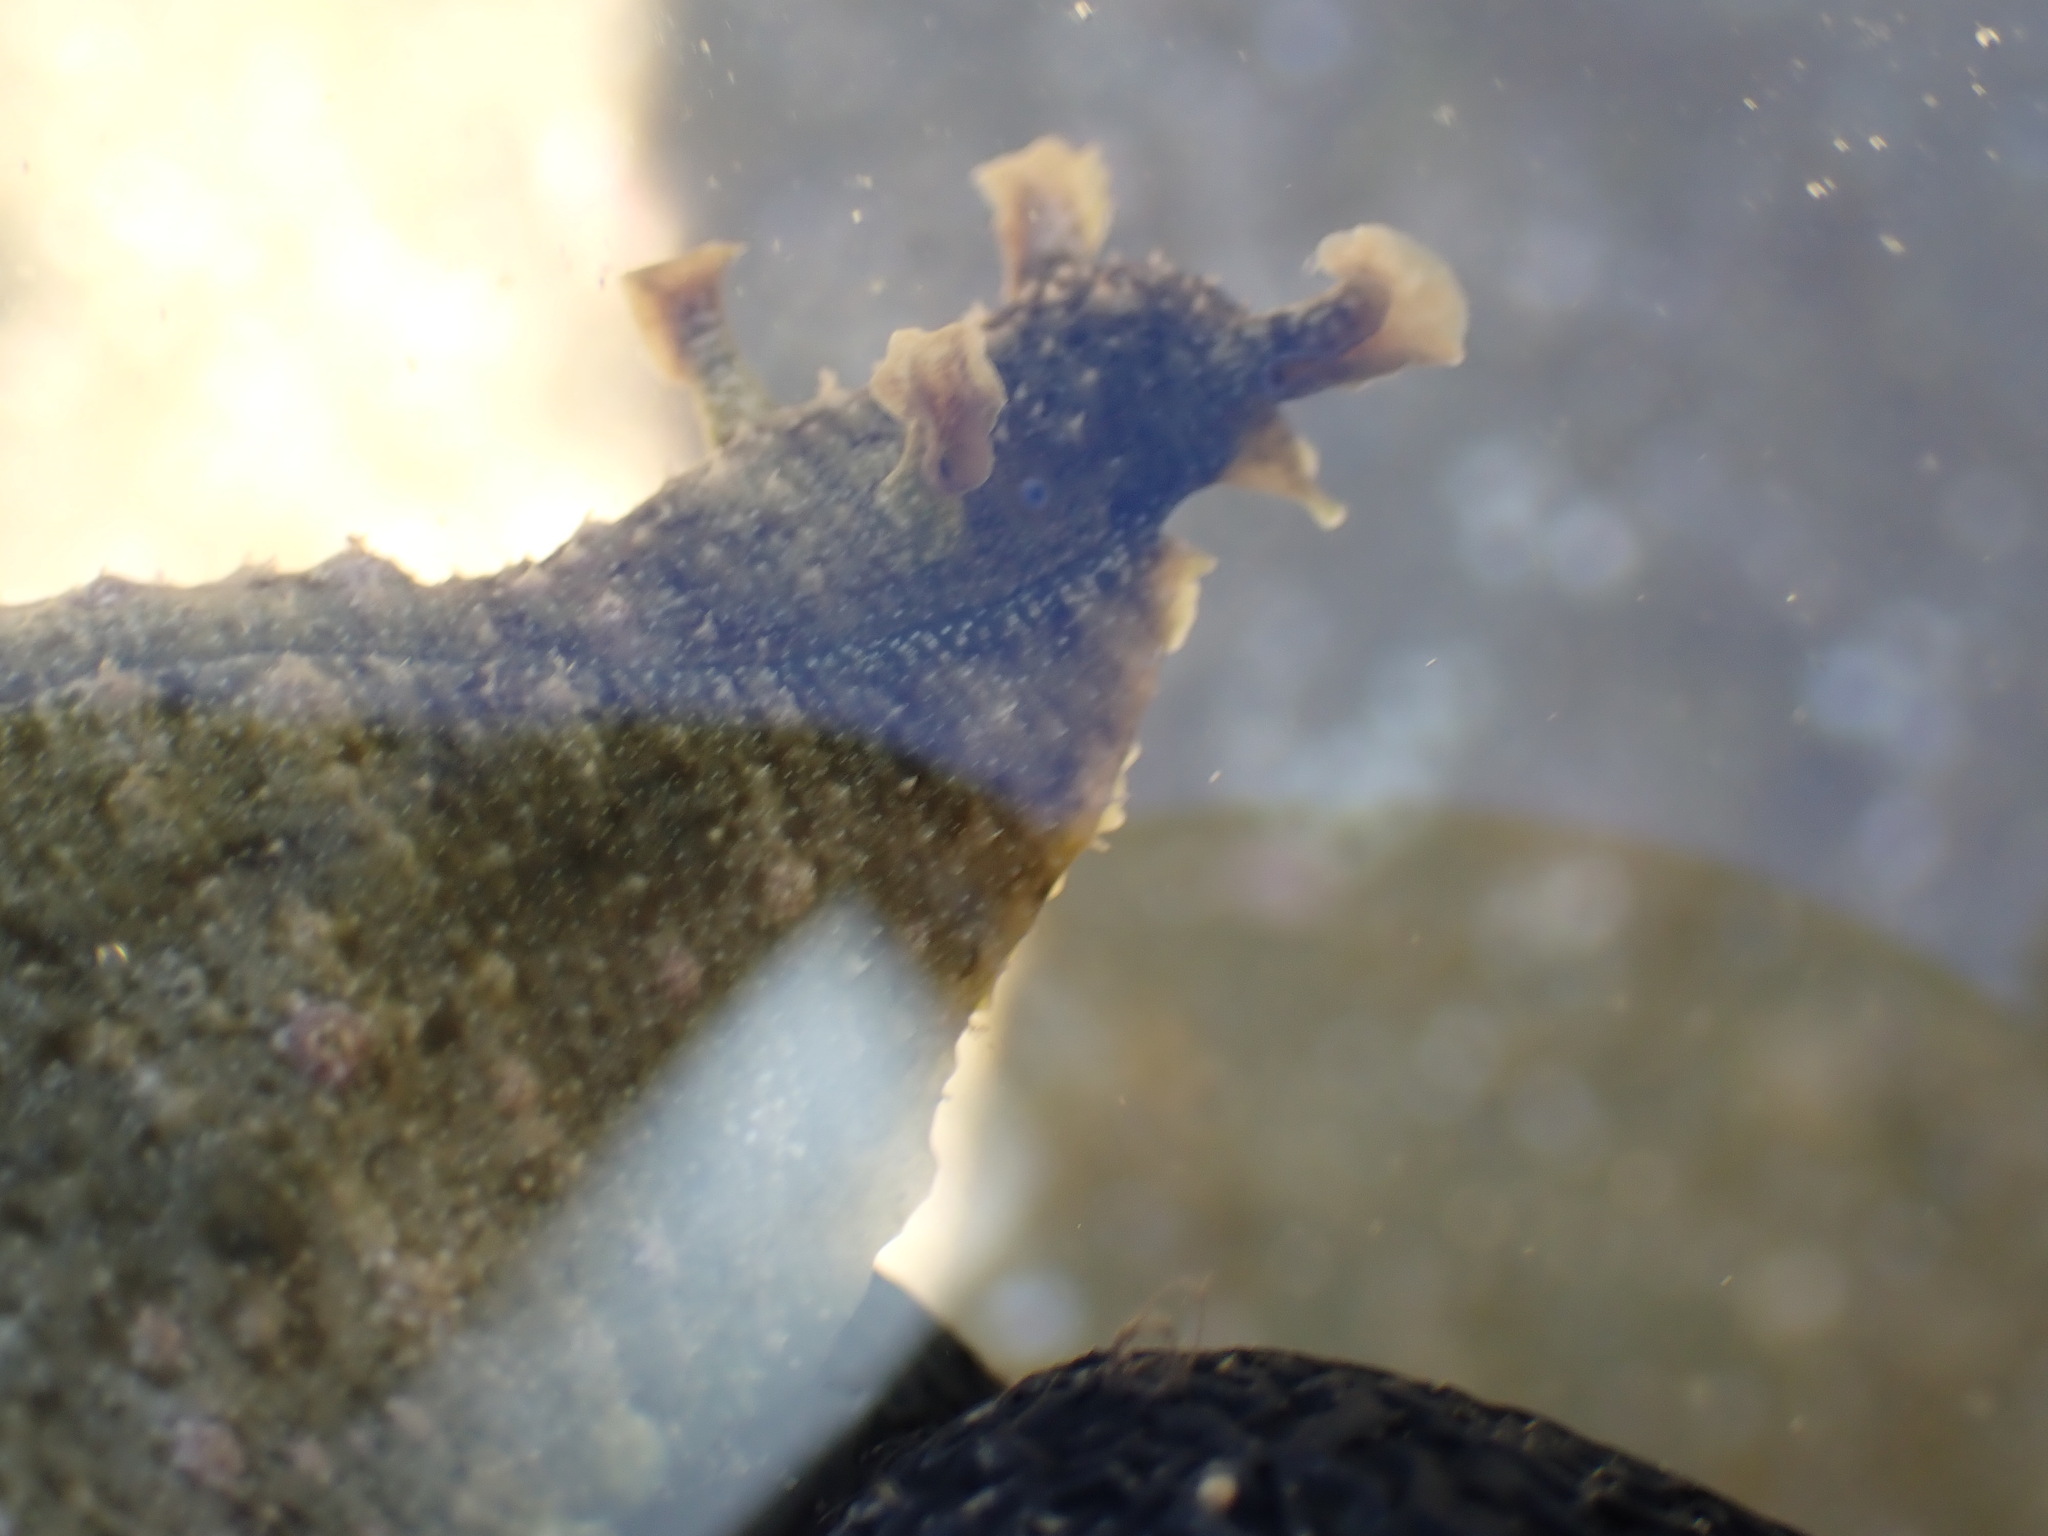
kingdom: Animalia
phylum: Mollusca
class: Gastropoda
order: Aplysiida
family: Aplysiidae
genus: Dolabrifera
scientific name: Dolabrifera dolabrifera
